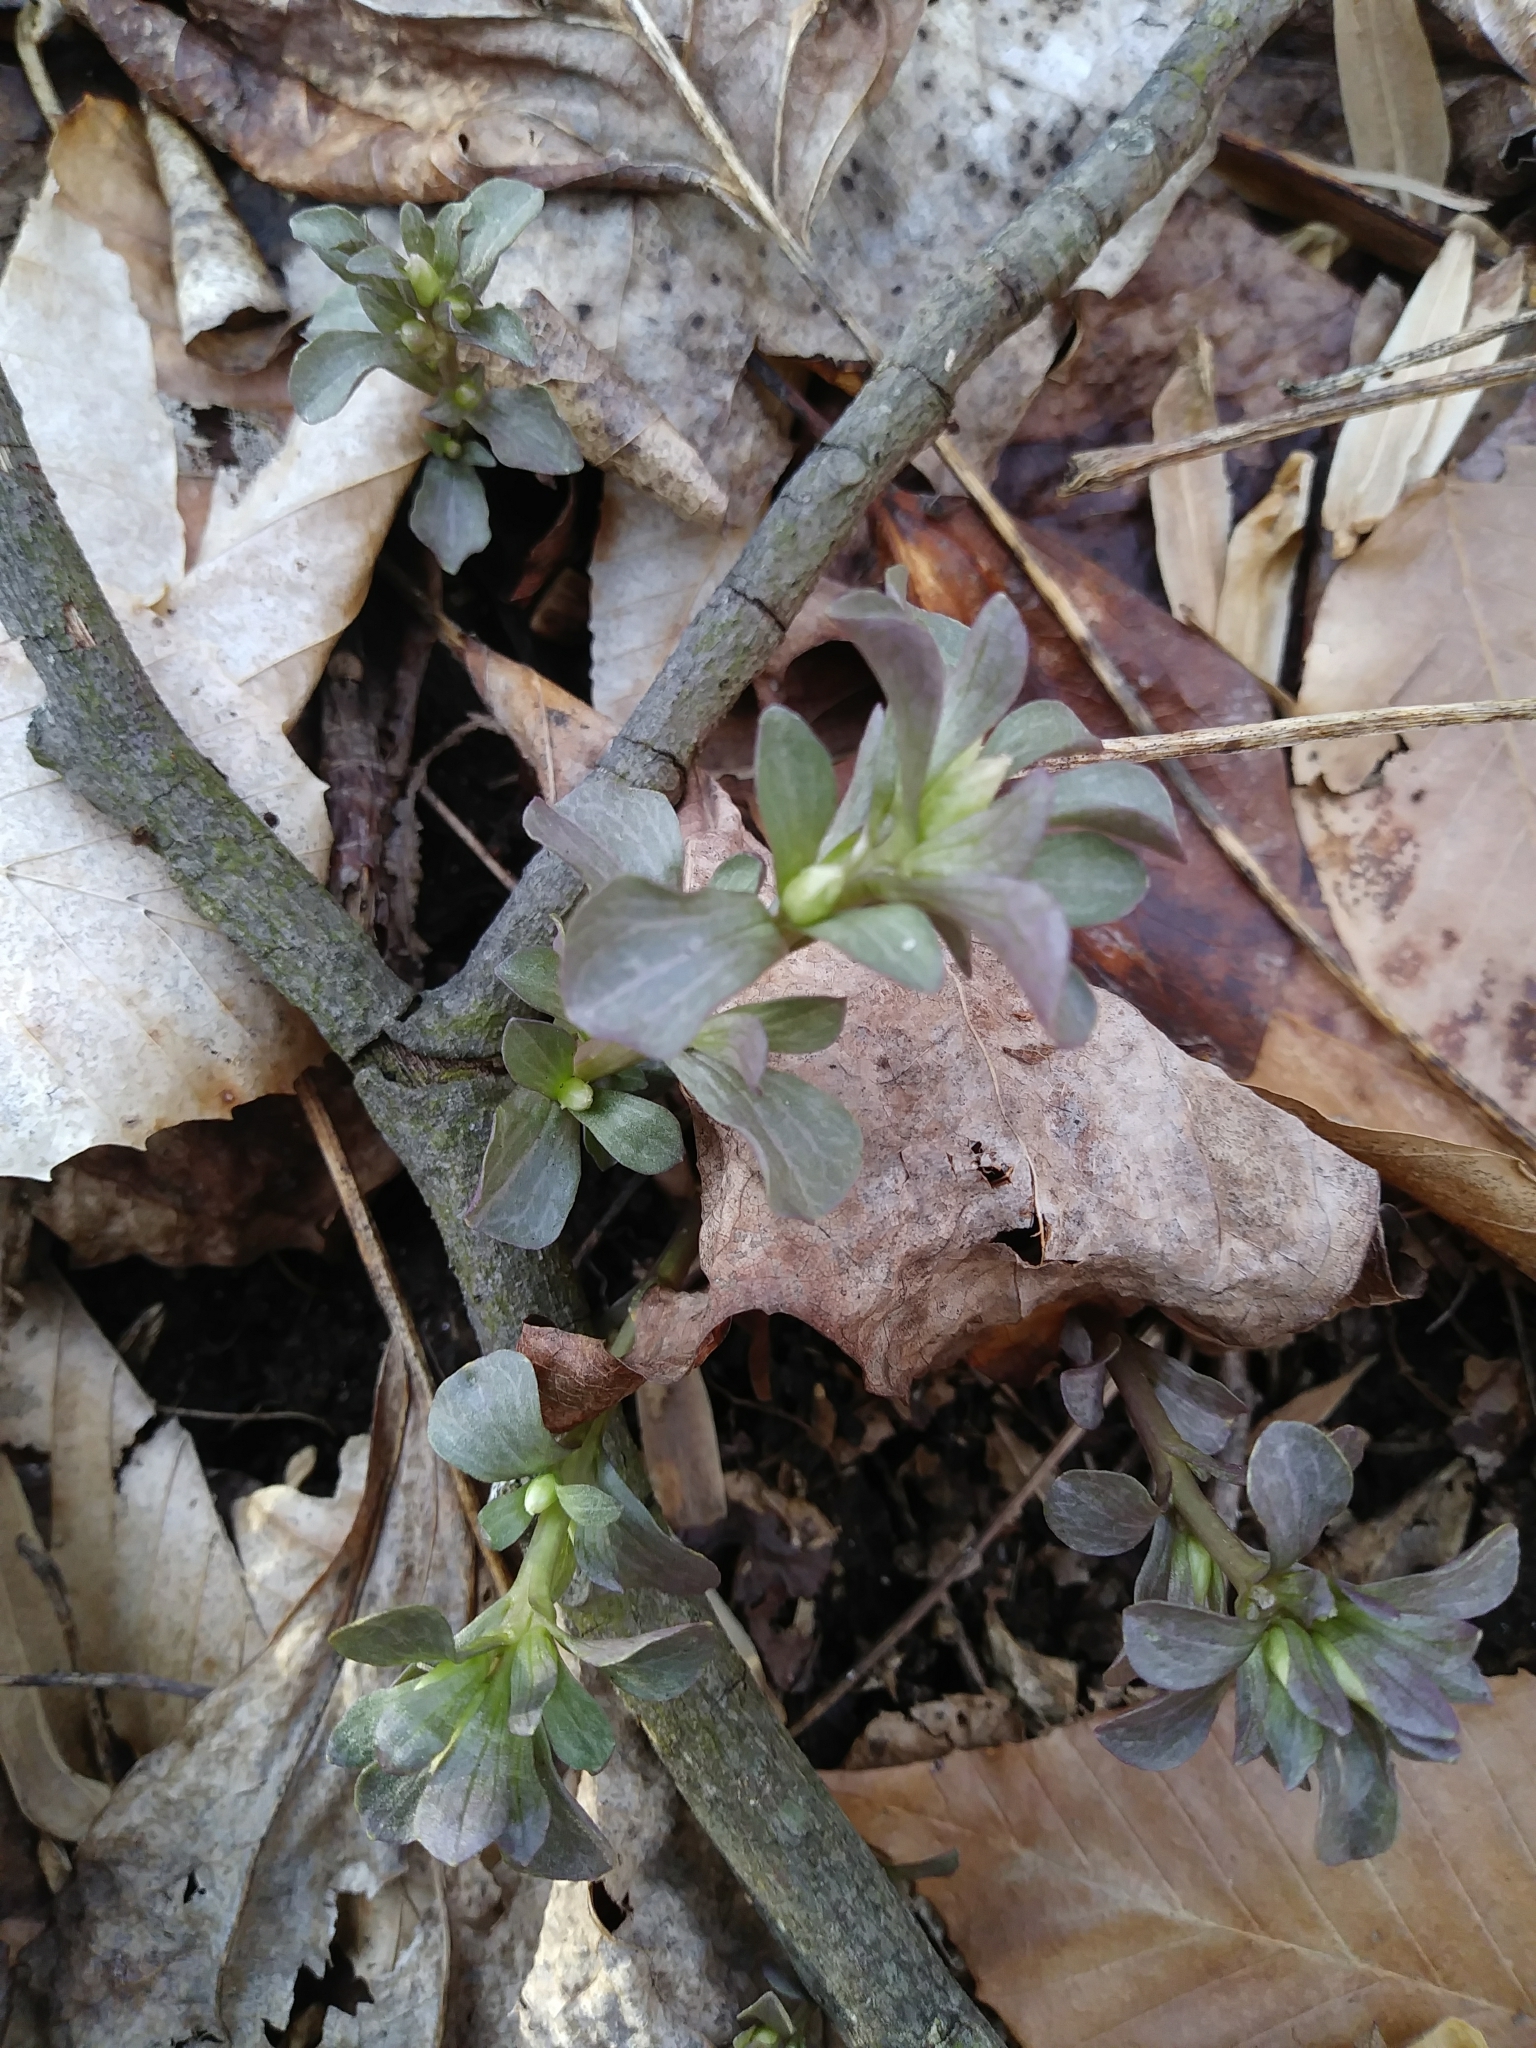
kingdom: Plantae
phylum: Tracheophyta
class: Magnoliopsida
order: Gentianales
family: Gentianaceae
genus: Obolaria
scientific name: Obolaria virginica
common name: Pennywort
